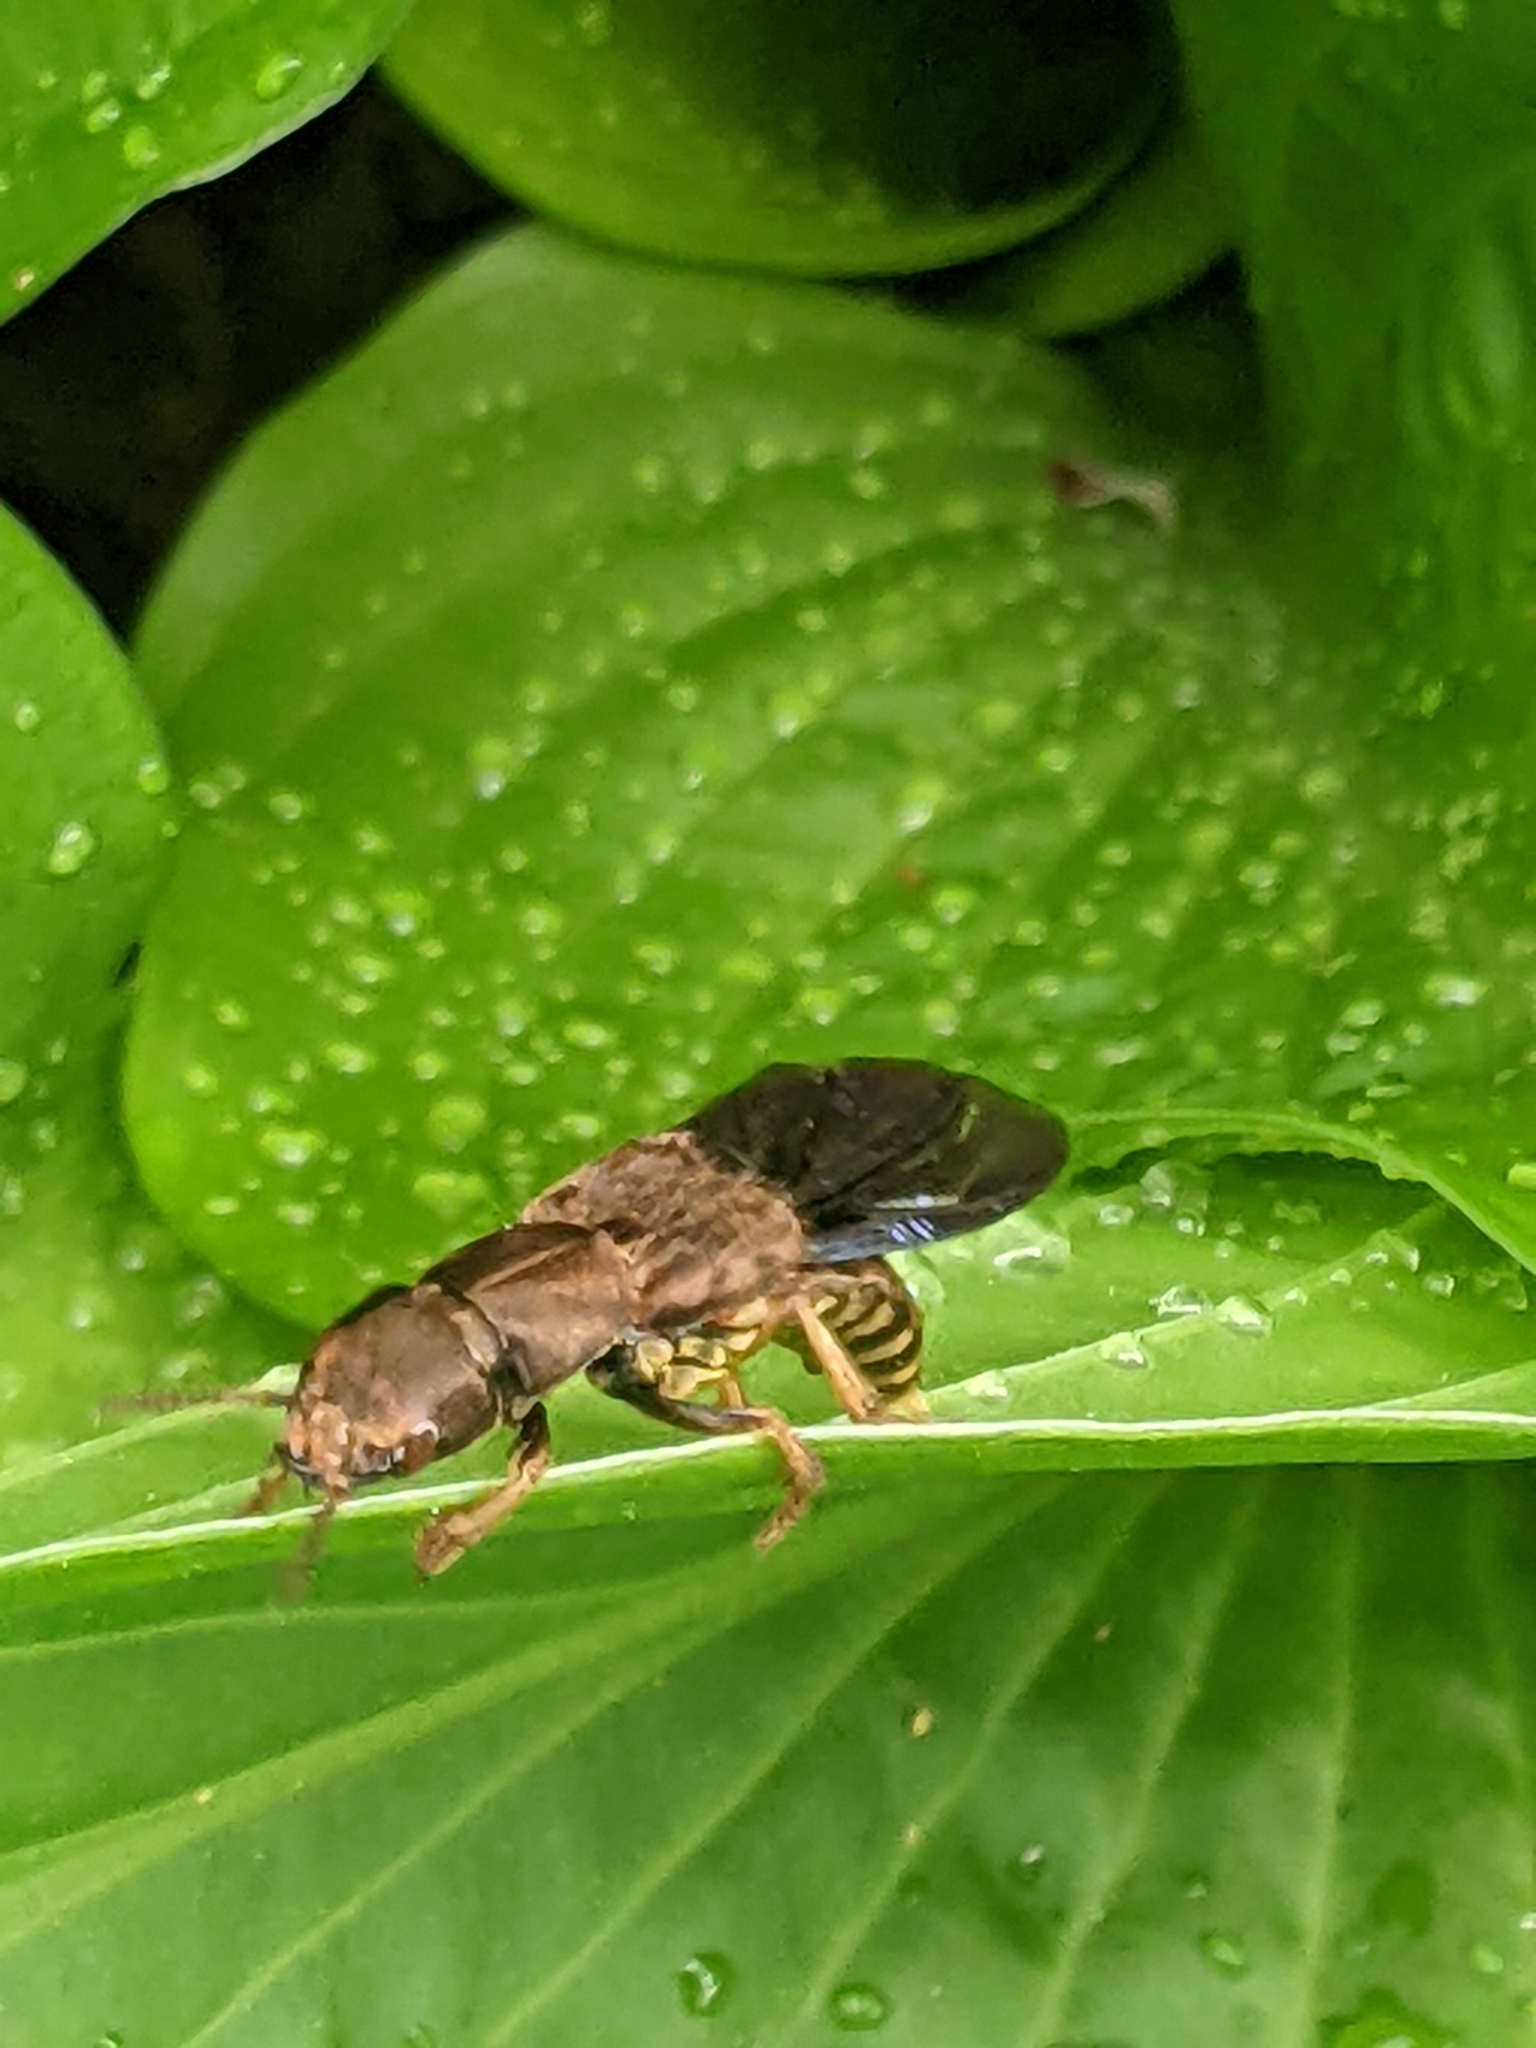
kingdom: Animalia
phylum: Arthropoda
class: Insecta
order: Coleoptera
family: Staphylinidae
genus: Platydracus
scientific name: Platydracus maculosus
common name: Brown rove beetle
